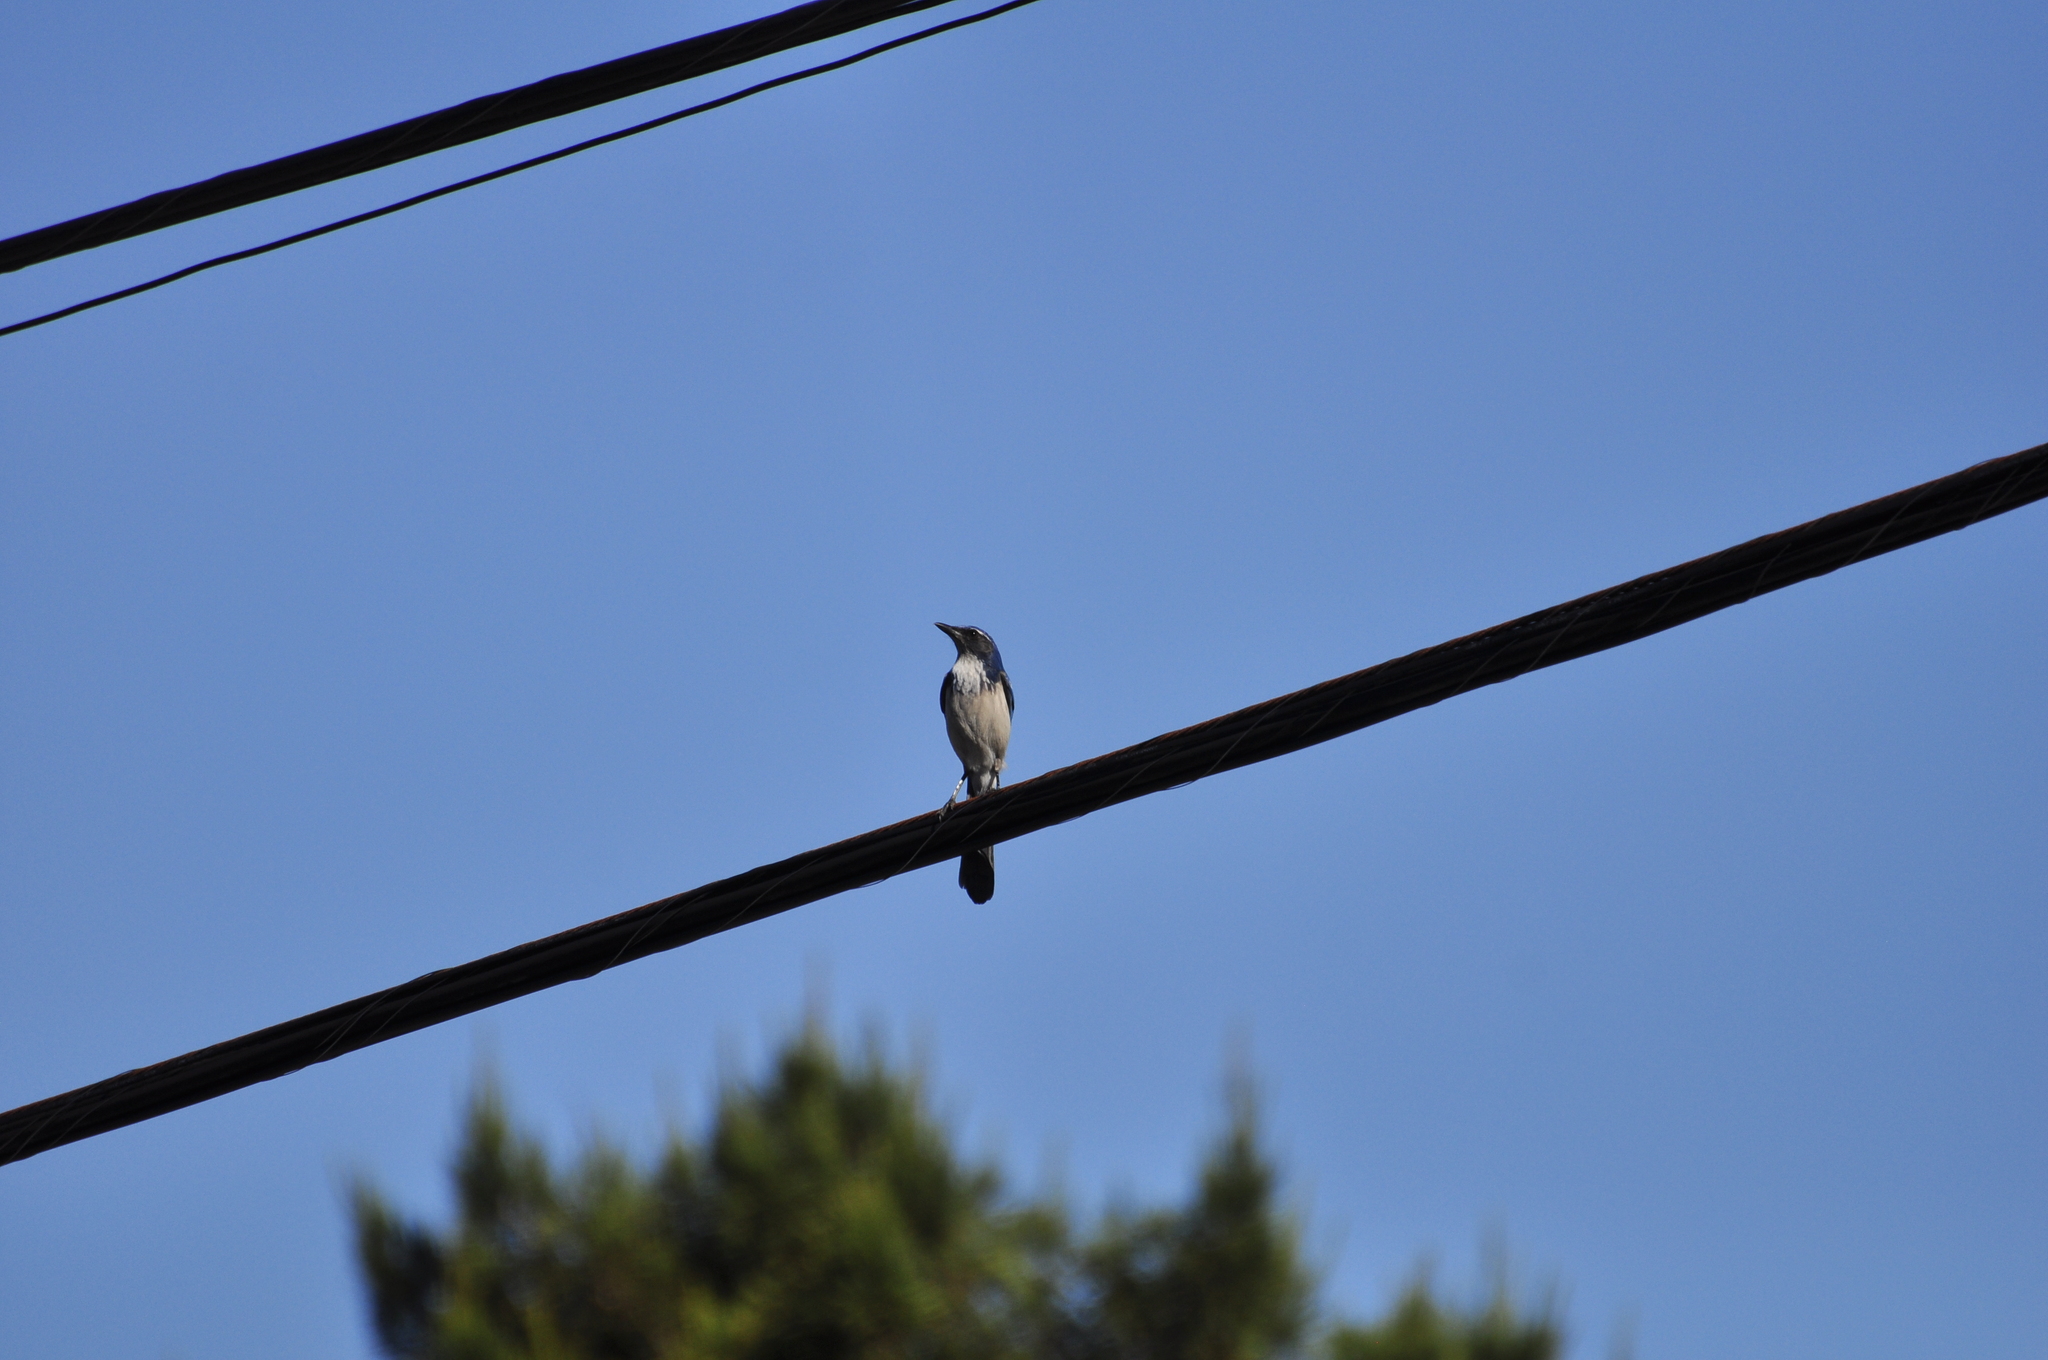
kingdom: Animalia
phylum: Chordata
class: Aves
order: Passeriformes
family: Corvidae
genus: Aphelocoma
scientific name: Aphelocoma californica
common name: California scrub-jay
